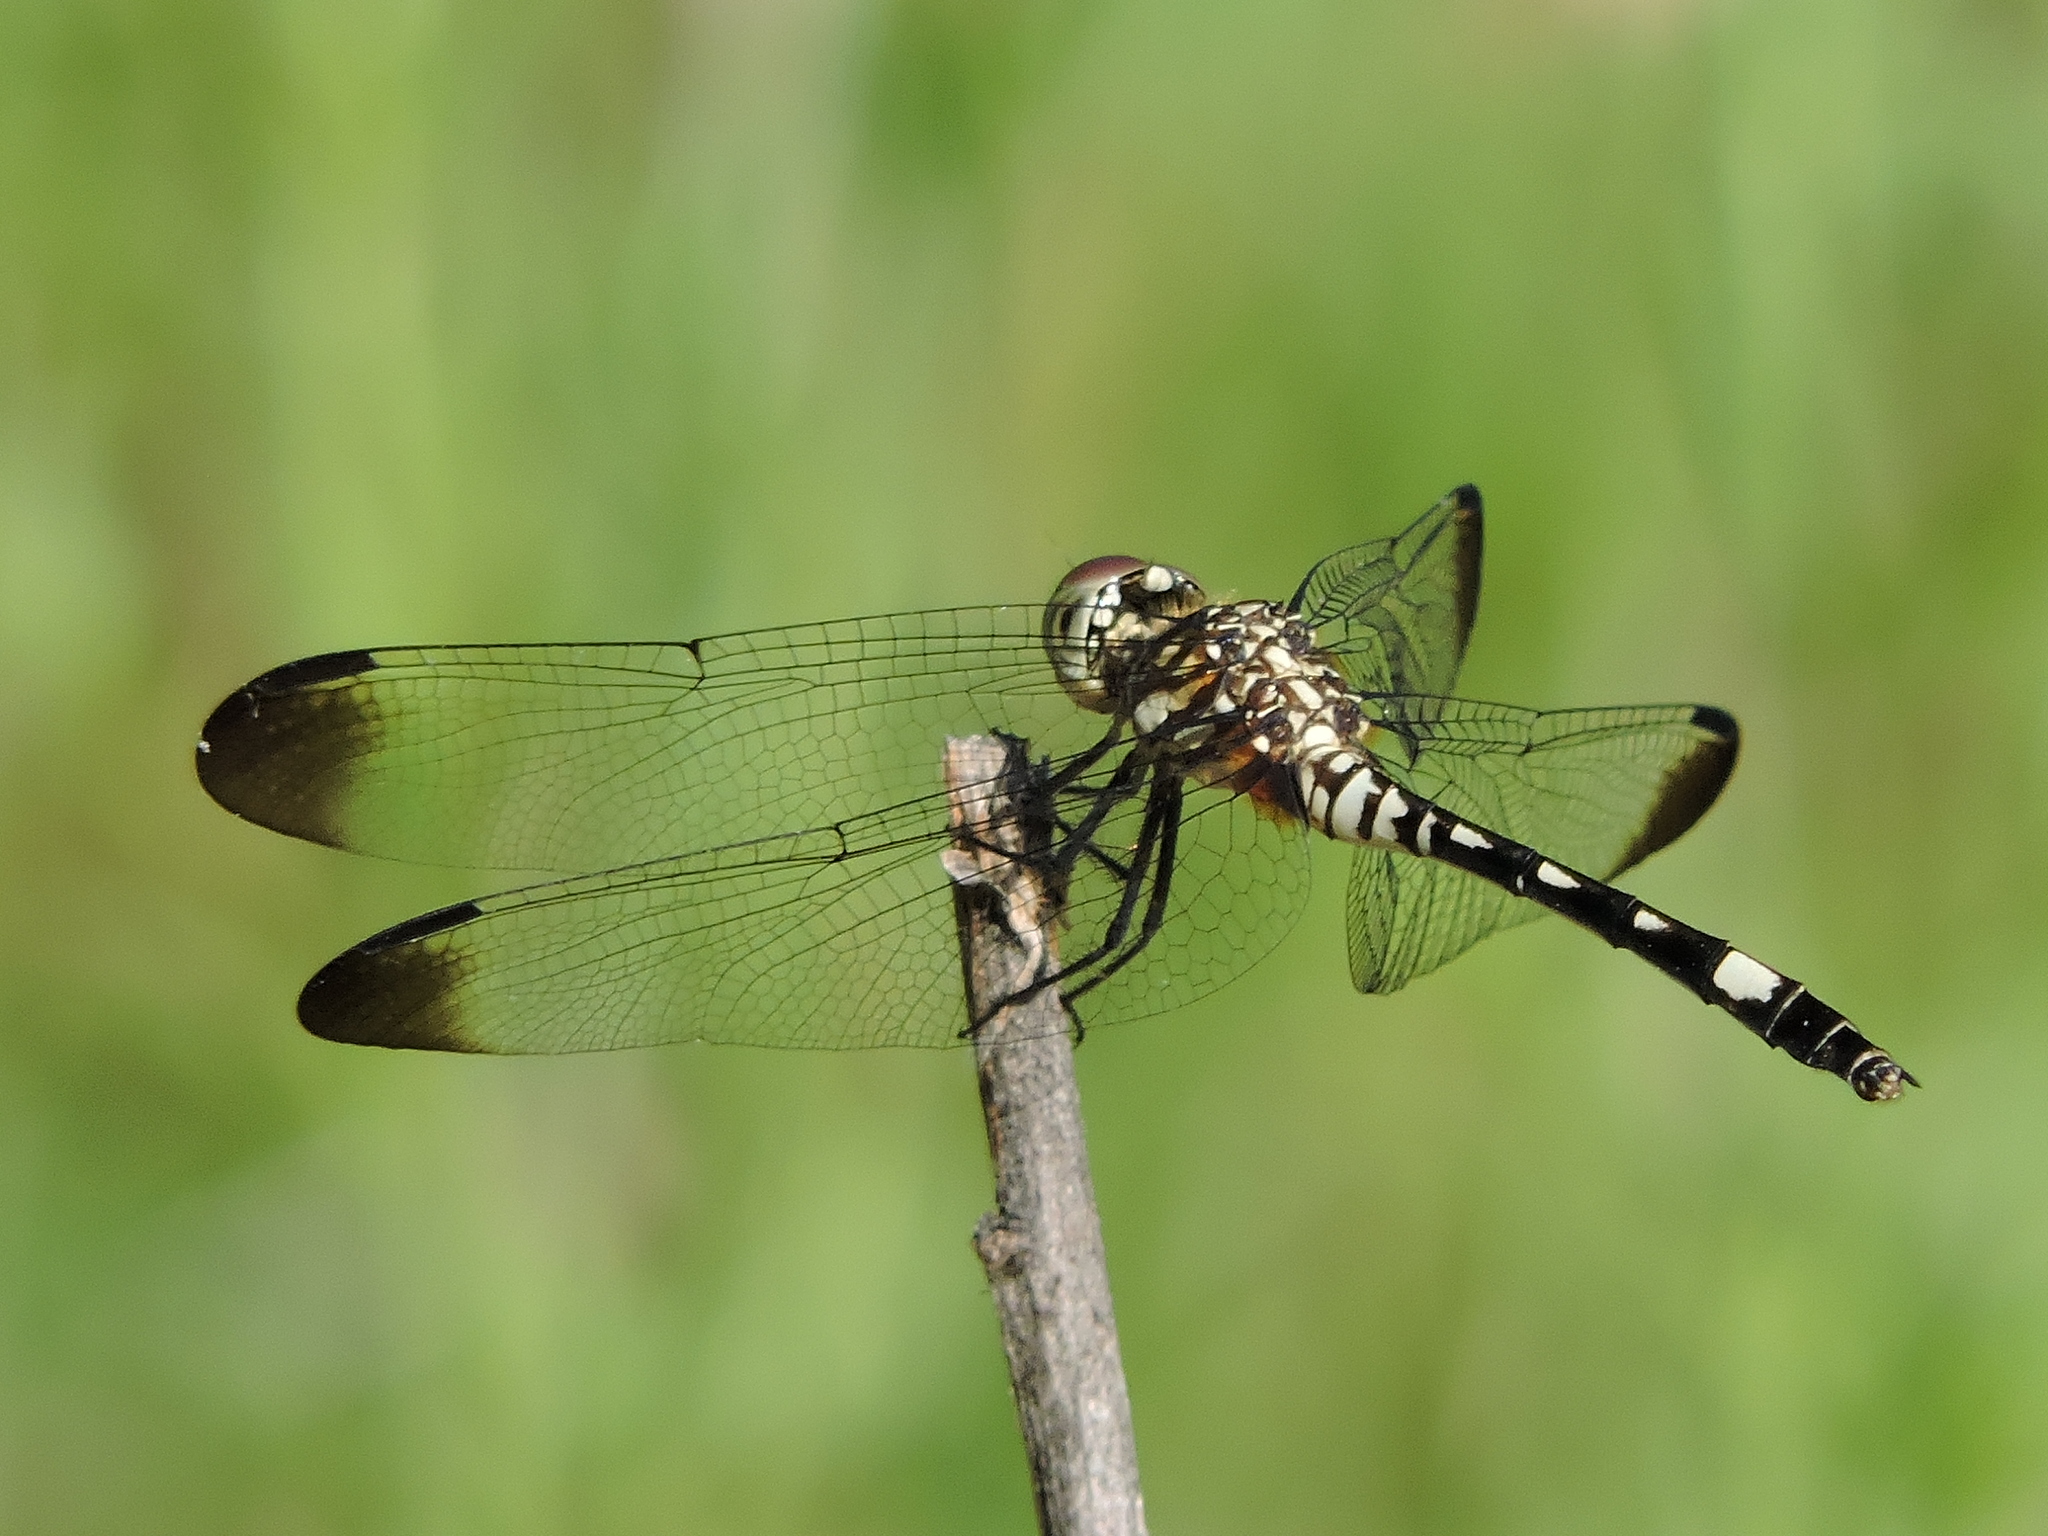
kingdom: Animalia
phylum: Arthropoda
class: Insecta
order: Odonata
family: Libellulidae
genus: Dythemis
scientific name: Dythemis velox
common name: Swift setwing
